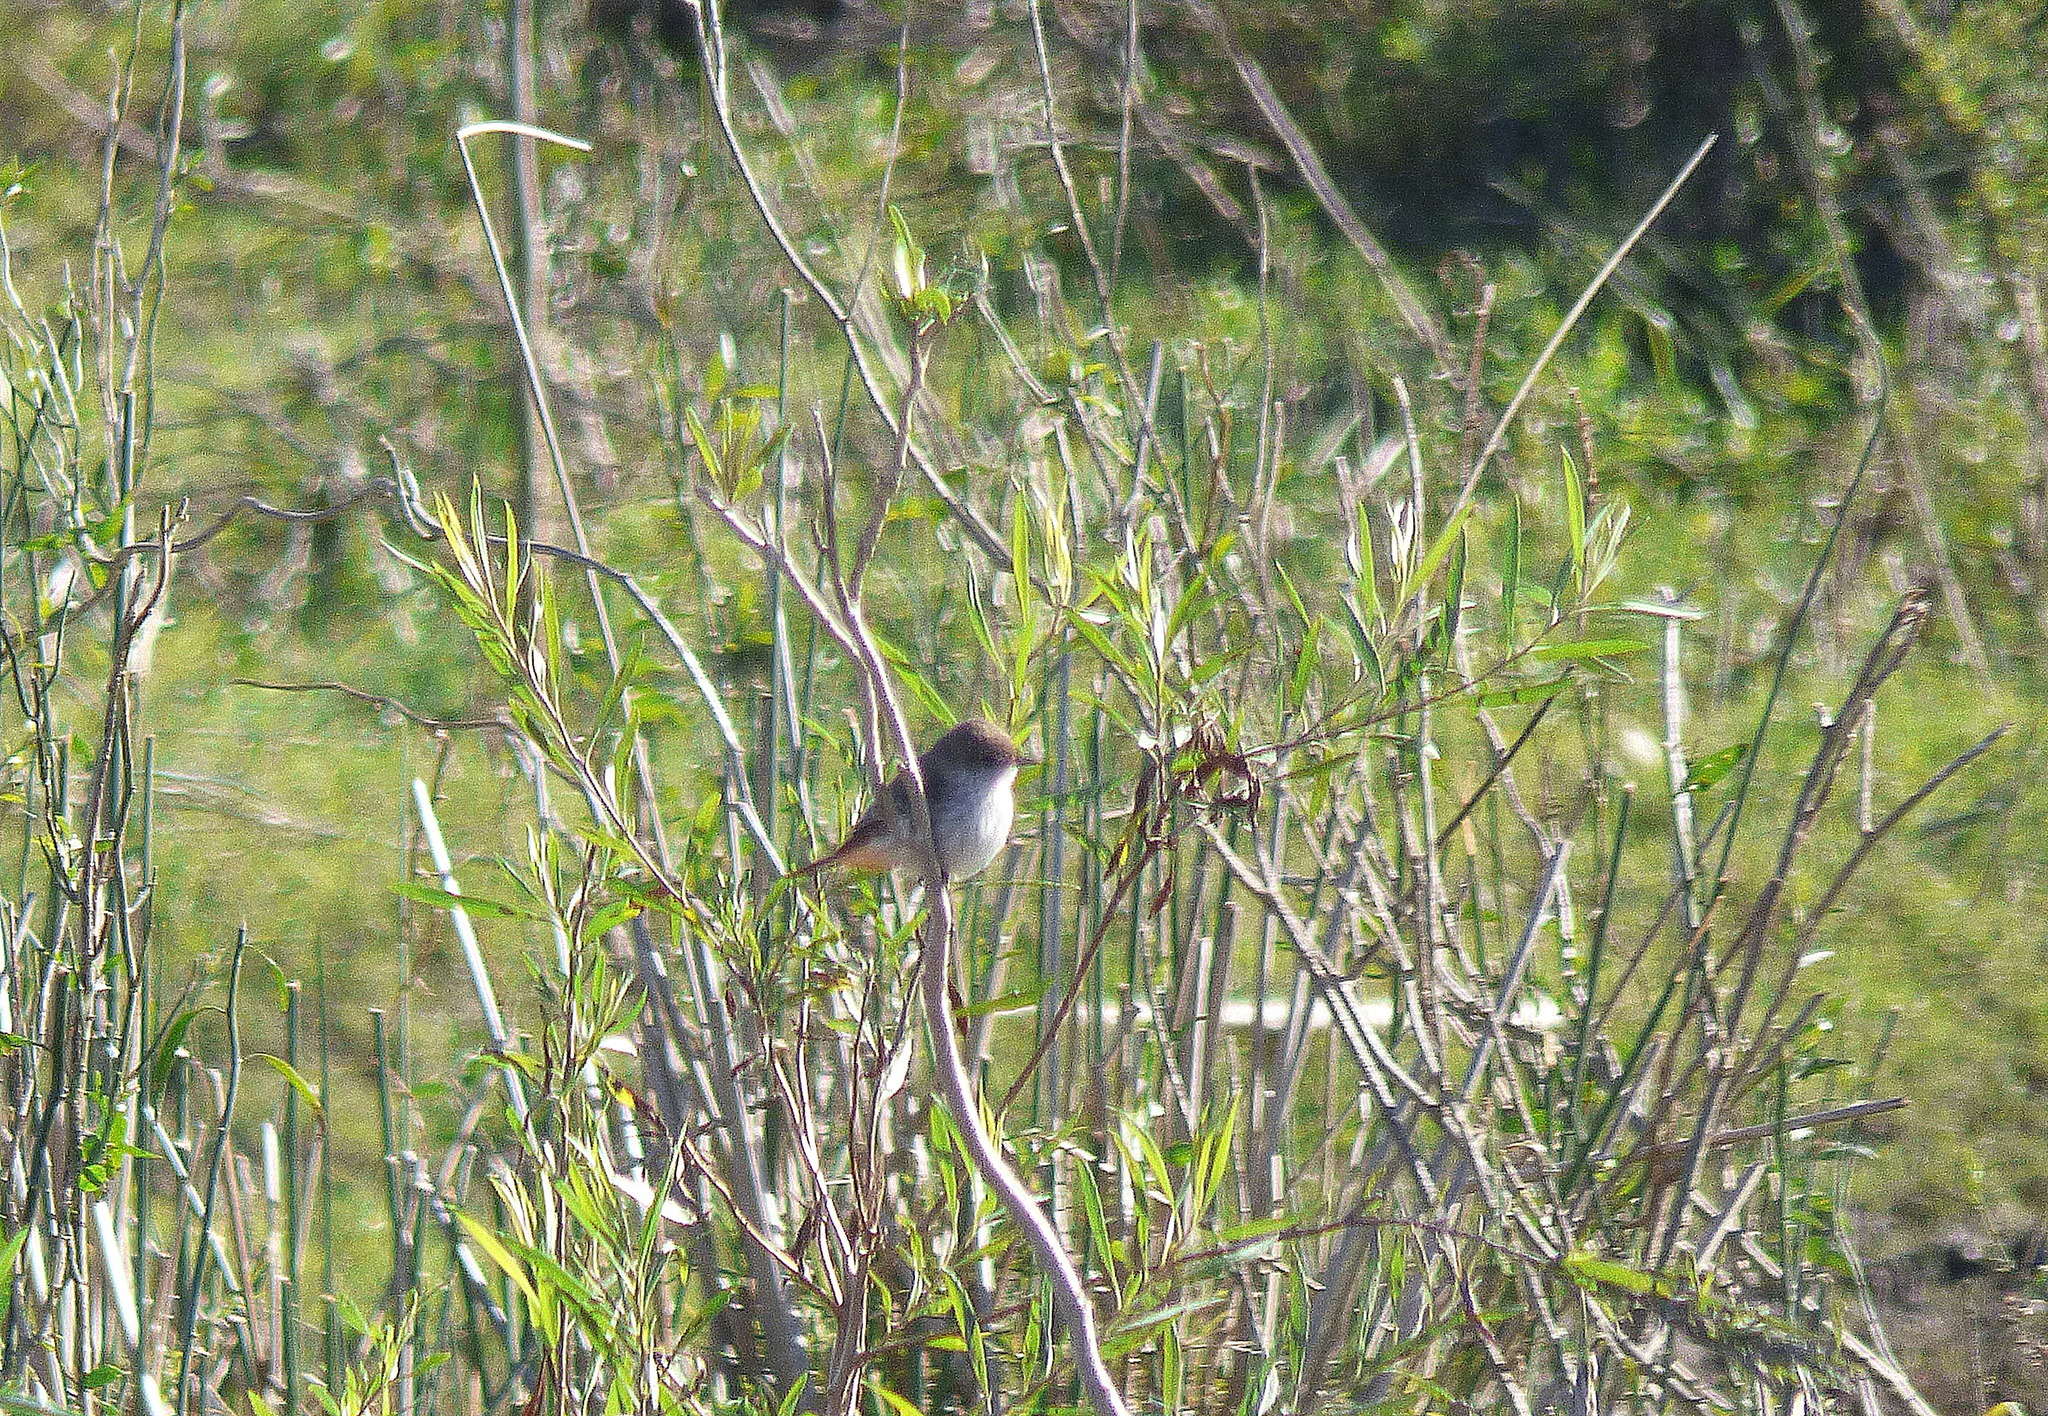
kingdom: Animalia
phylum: Chordata
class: Aves
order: Passeriformes
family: Tyrannidae
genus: Pyrocephalus
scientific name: Pyrocephalus rubinus
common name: Vermilion flycatcher
